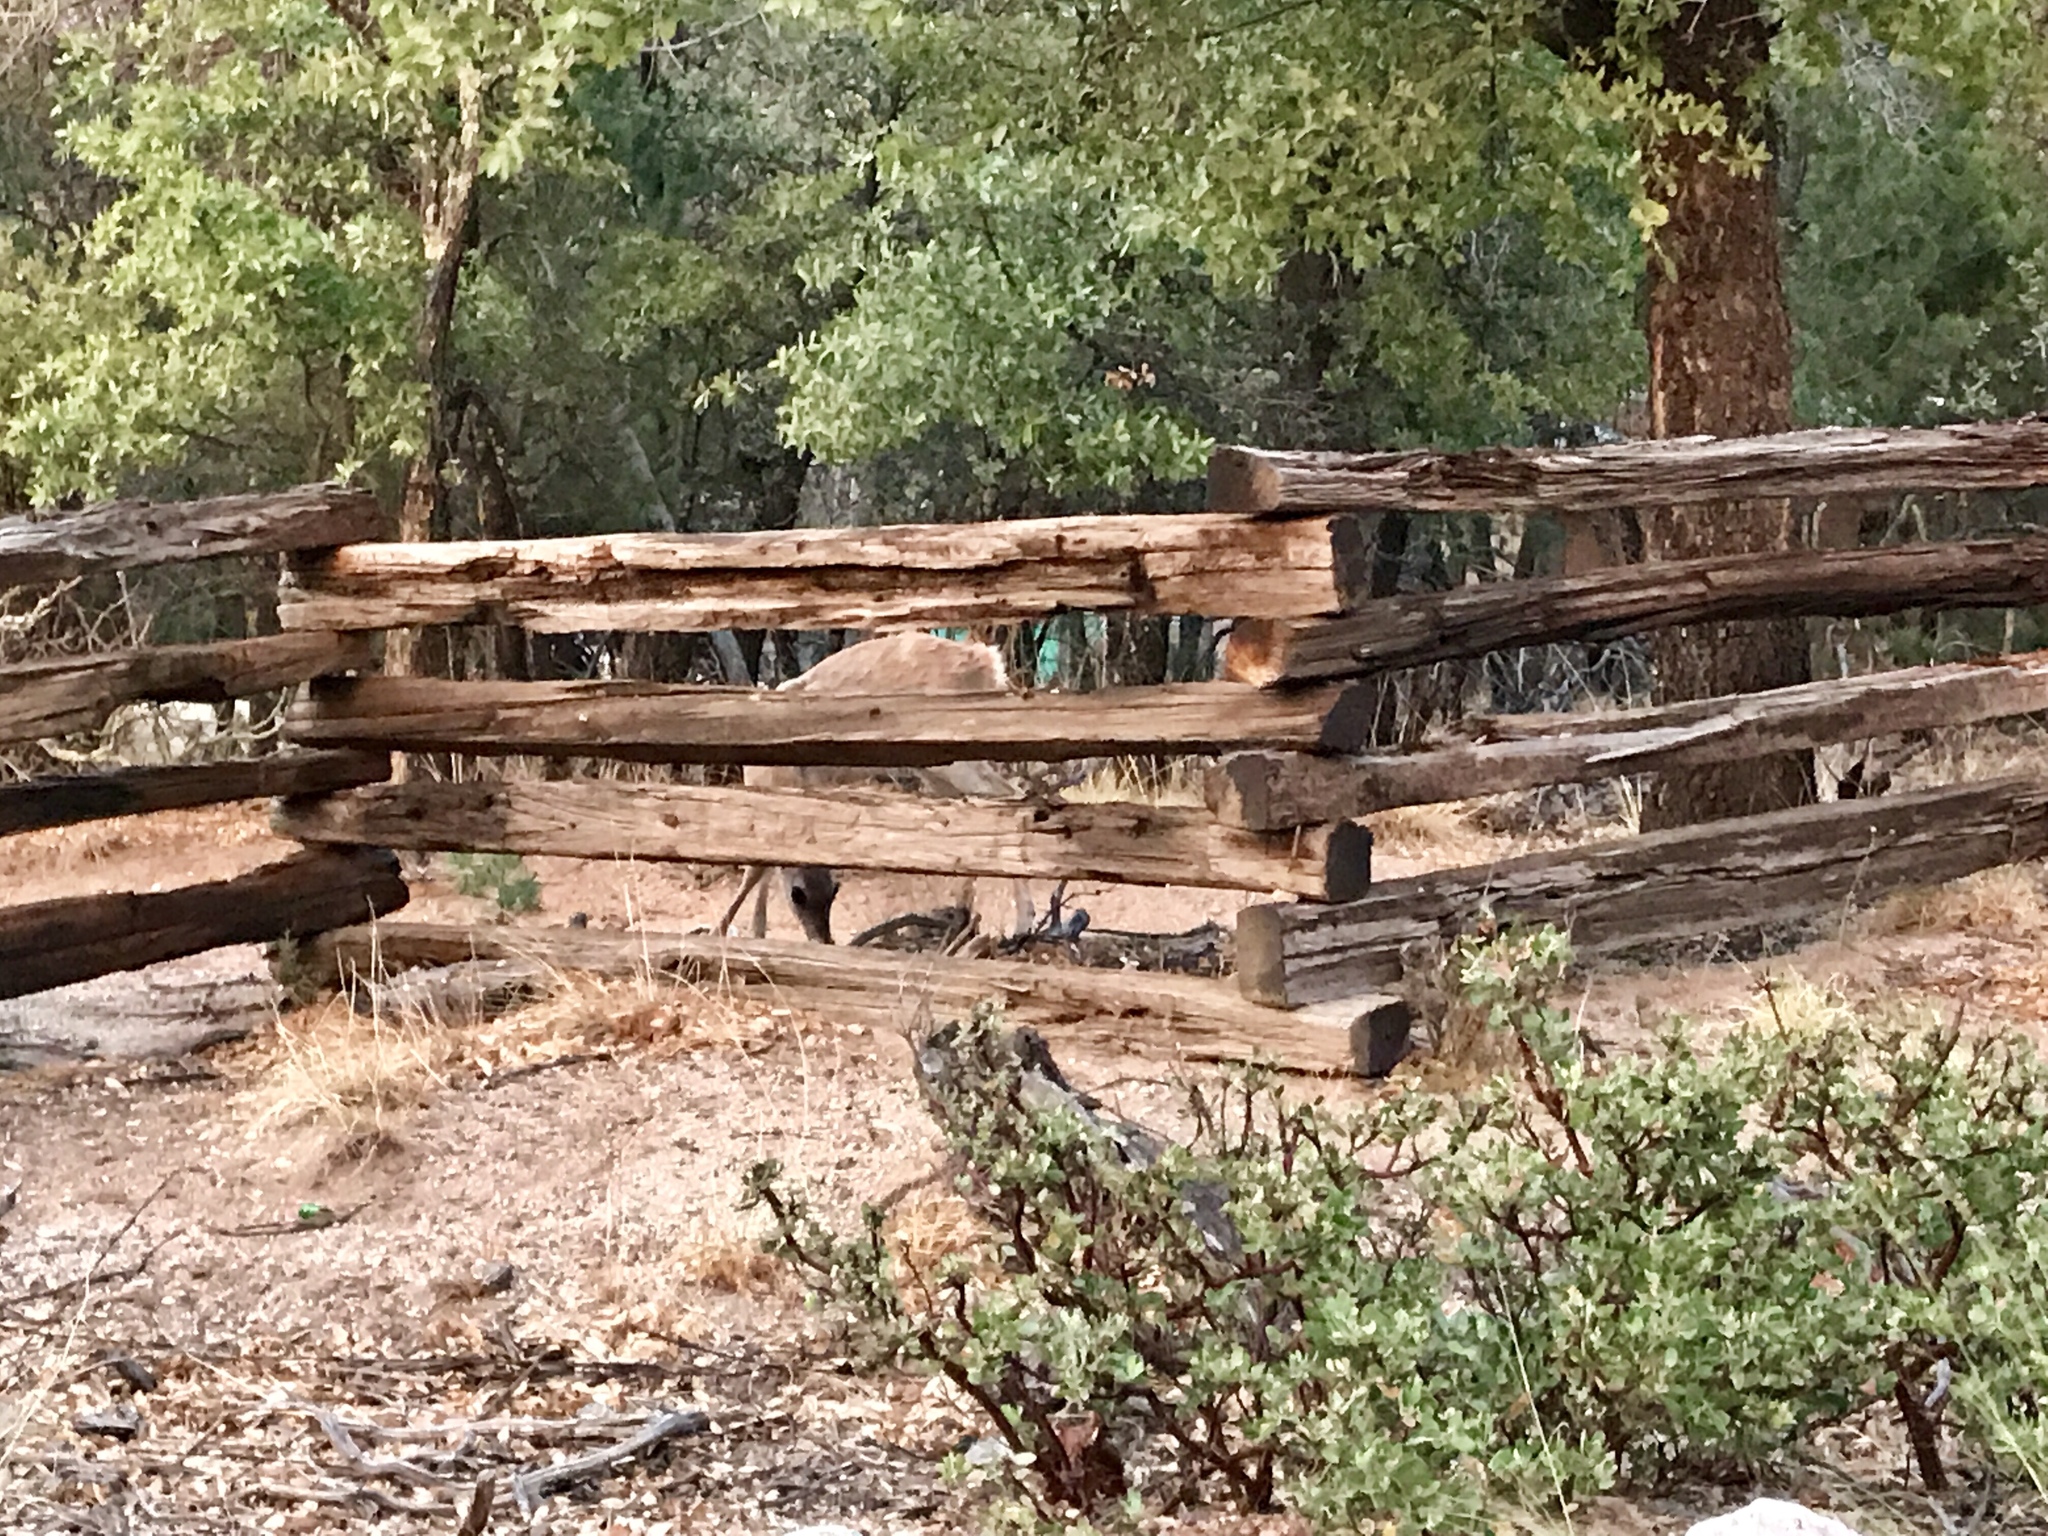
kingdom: Animalia
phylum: Chordata
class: Mammalia
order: Artiodactyla
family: Cervidae
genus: Odocoileus
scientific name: Odocoileus virginianus
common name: White-tailed deer
